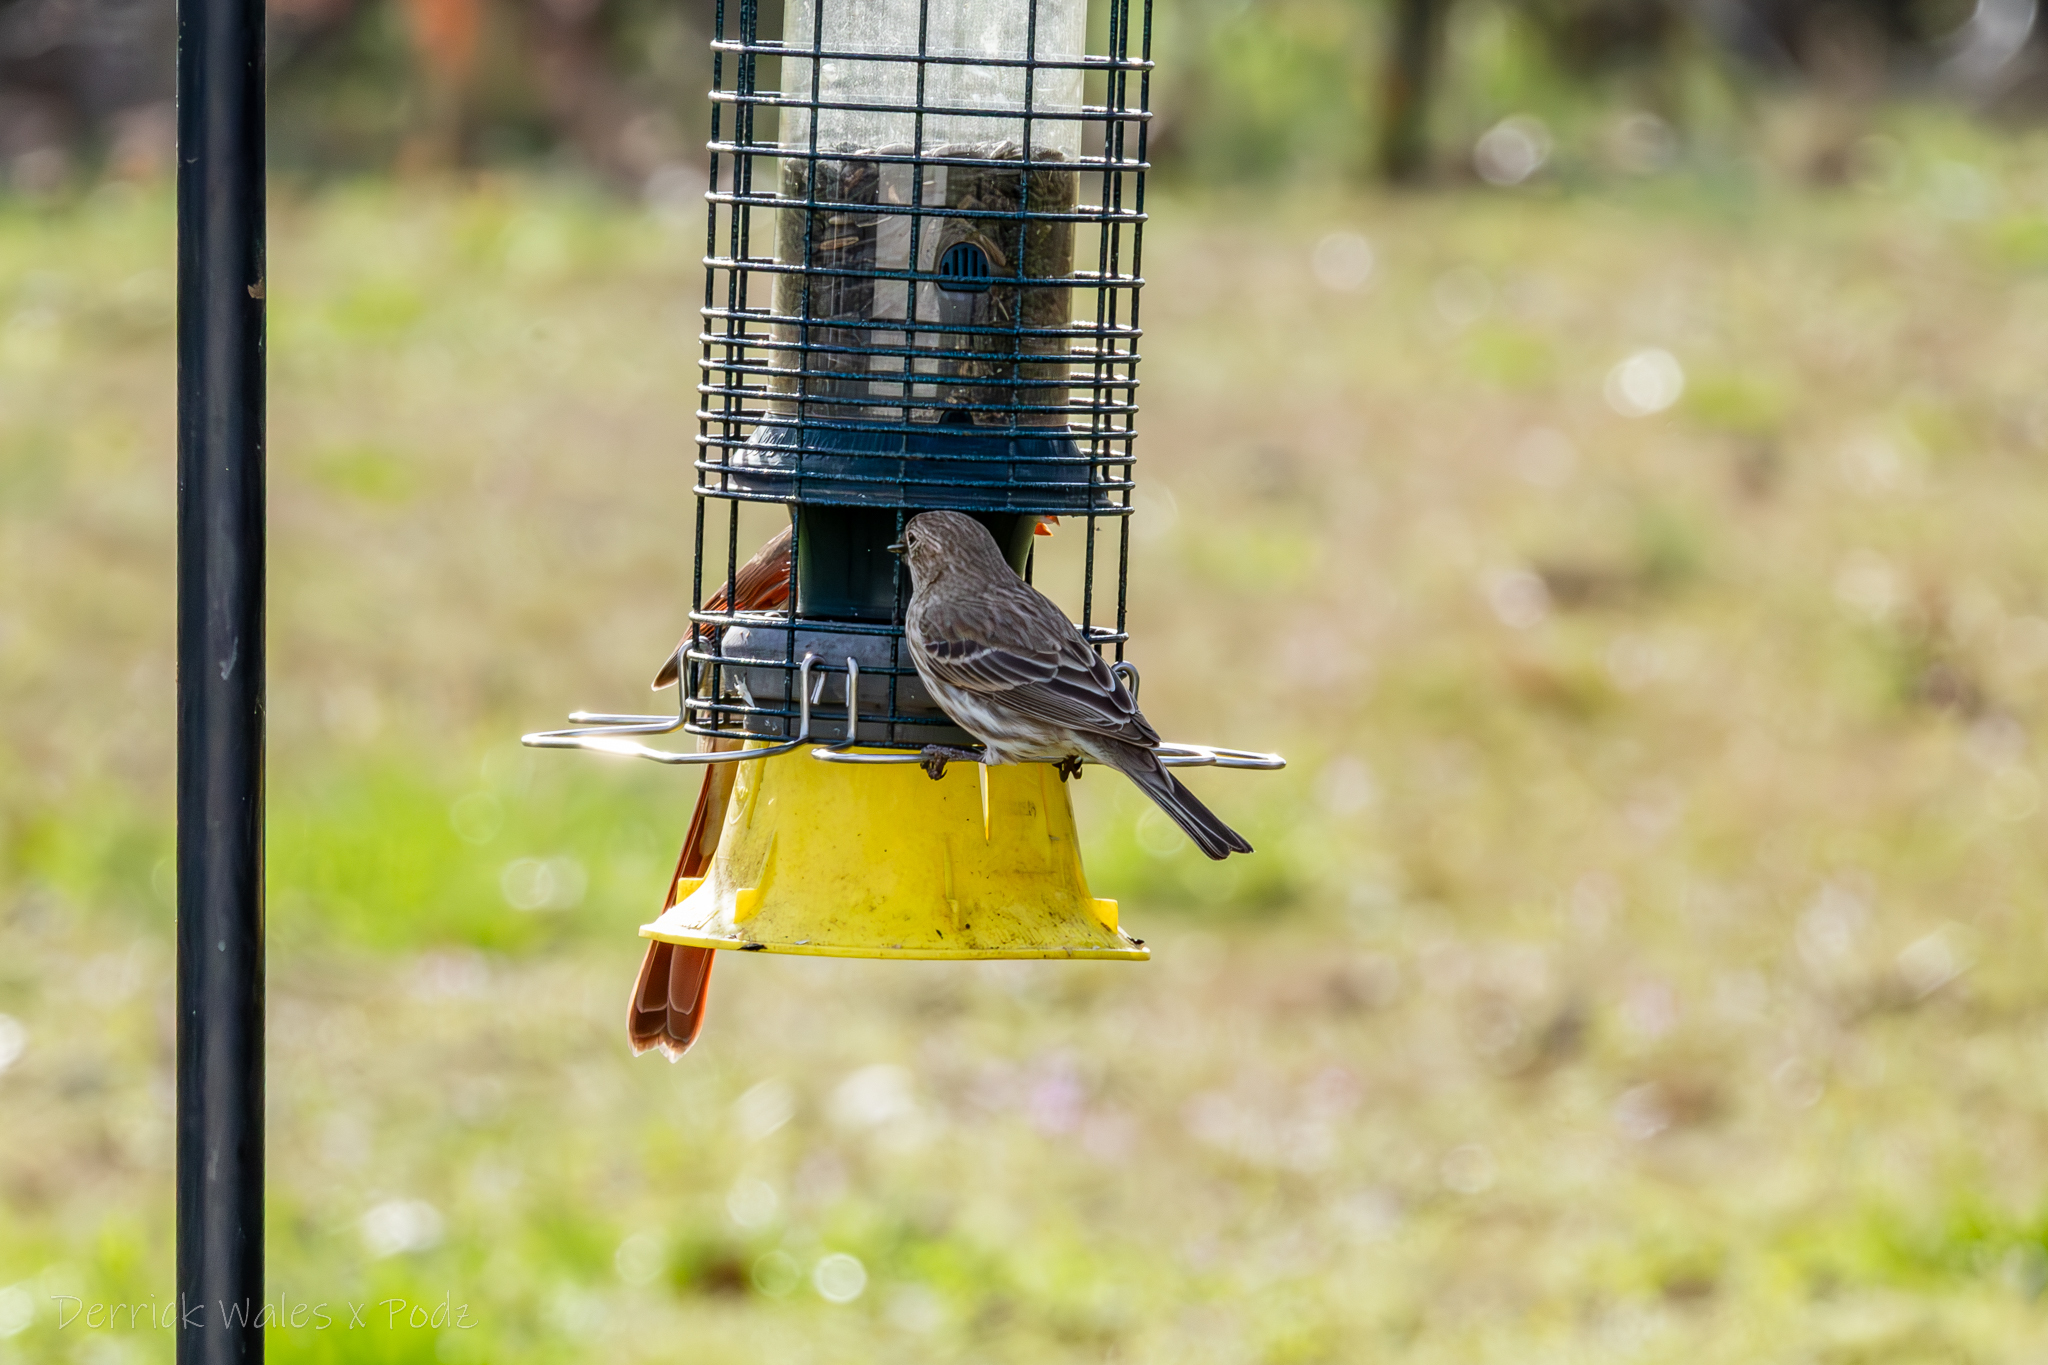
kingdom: Animalia
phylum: Chordata
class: Aves
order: Passeriformes
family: Fringillidae
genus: Haemorhous
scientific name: Haemorhous mexicanus
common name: House finch
